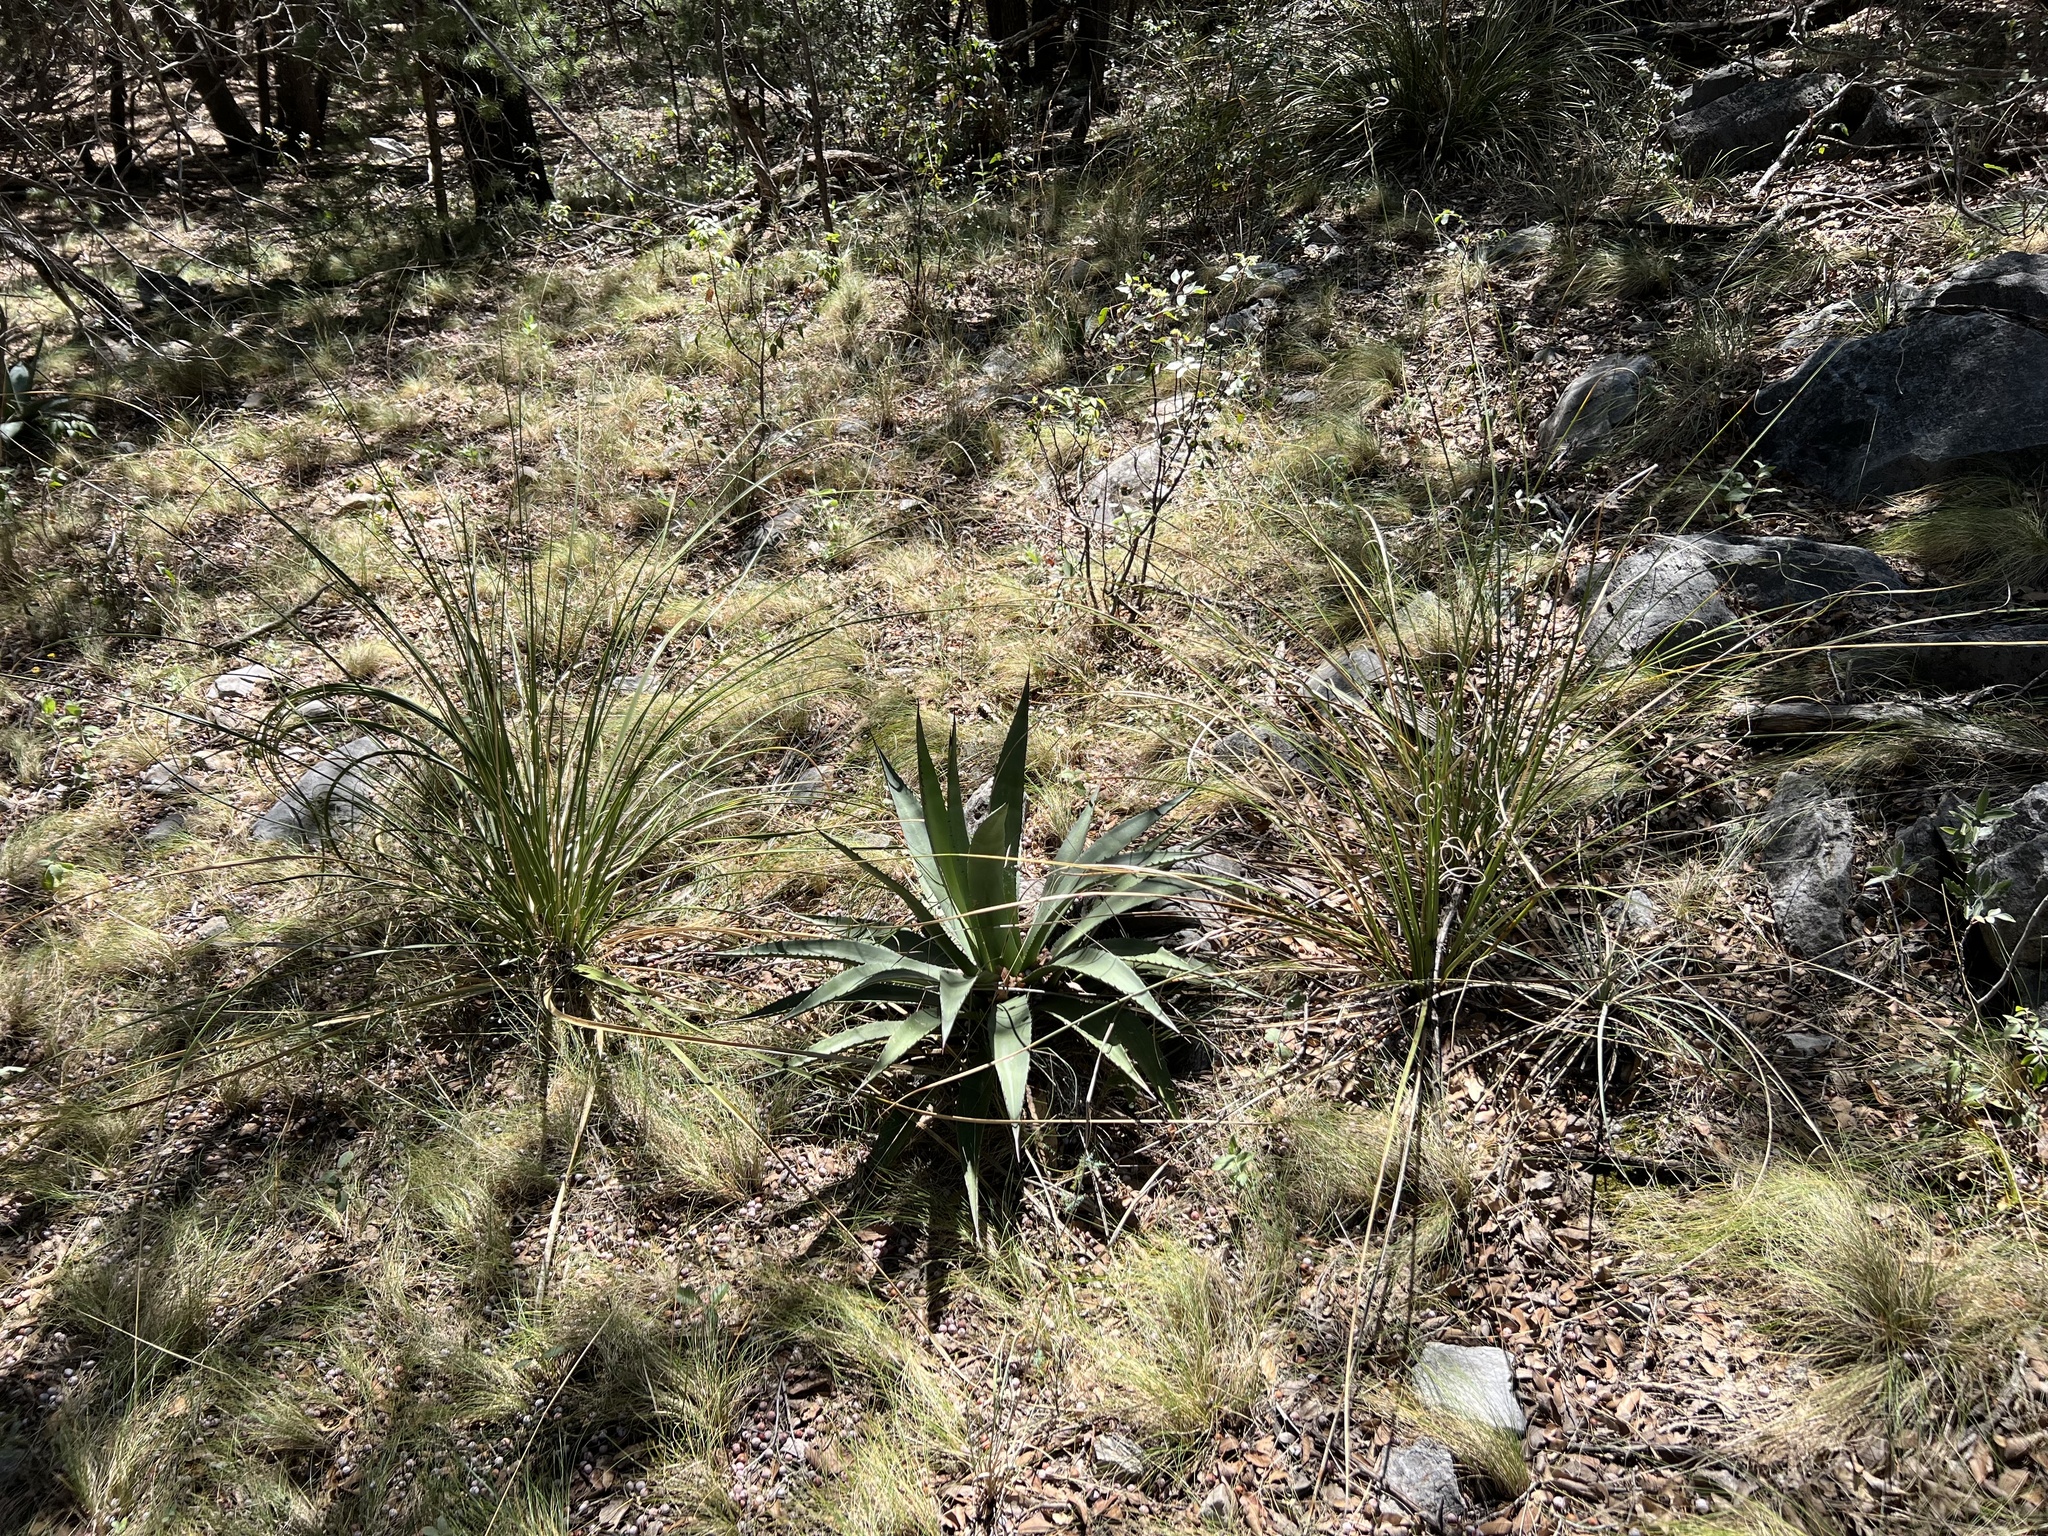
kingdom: Plantae
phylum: Tracheophyta
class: Liliopsida
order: Asparagales
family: Asparagaceae
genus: Agave
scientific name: Agave palmeri
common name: Palmer agave
